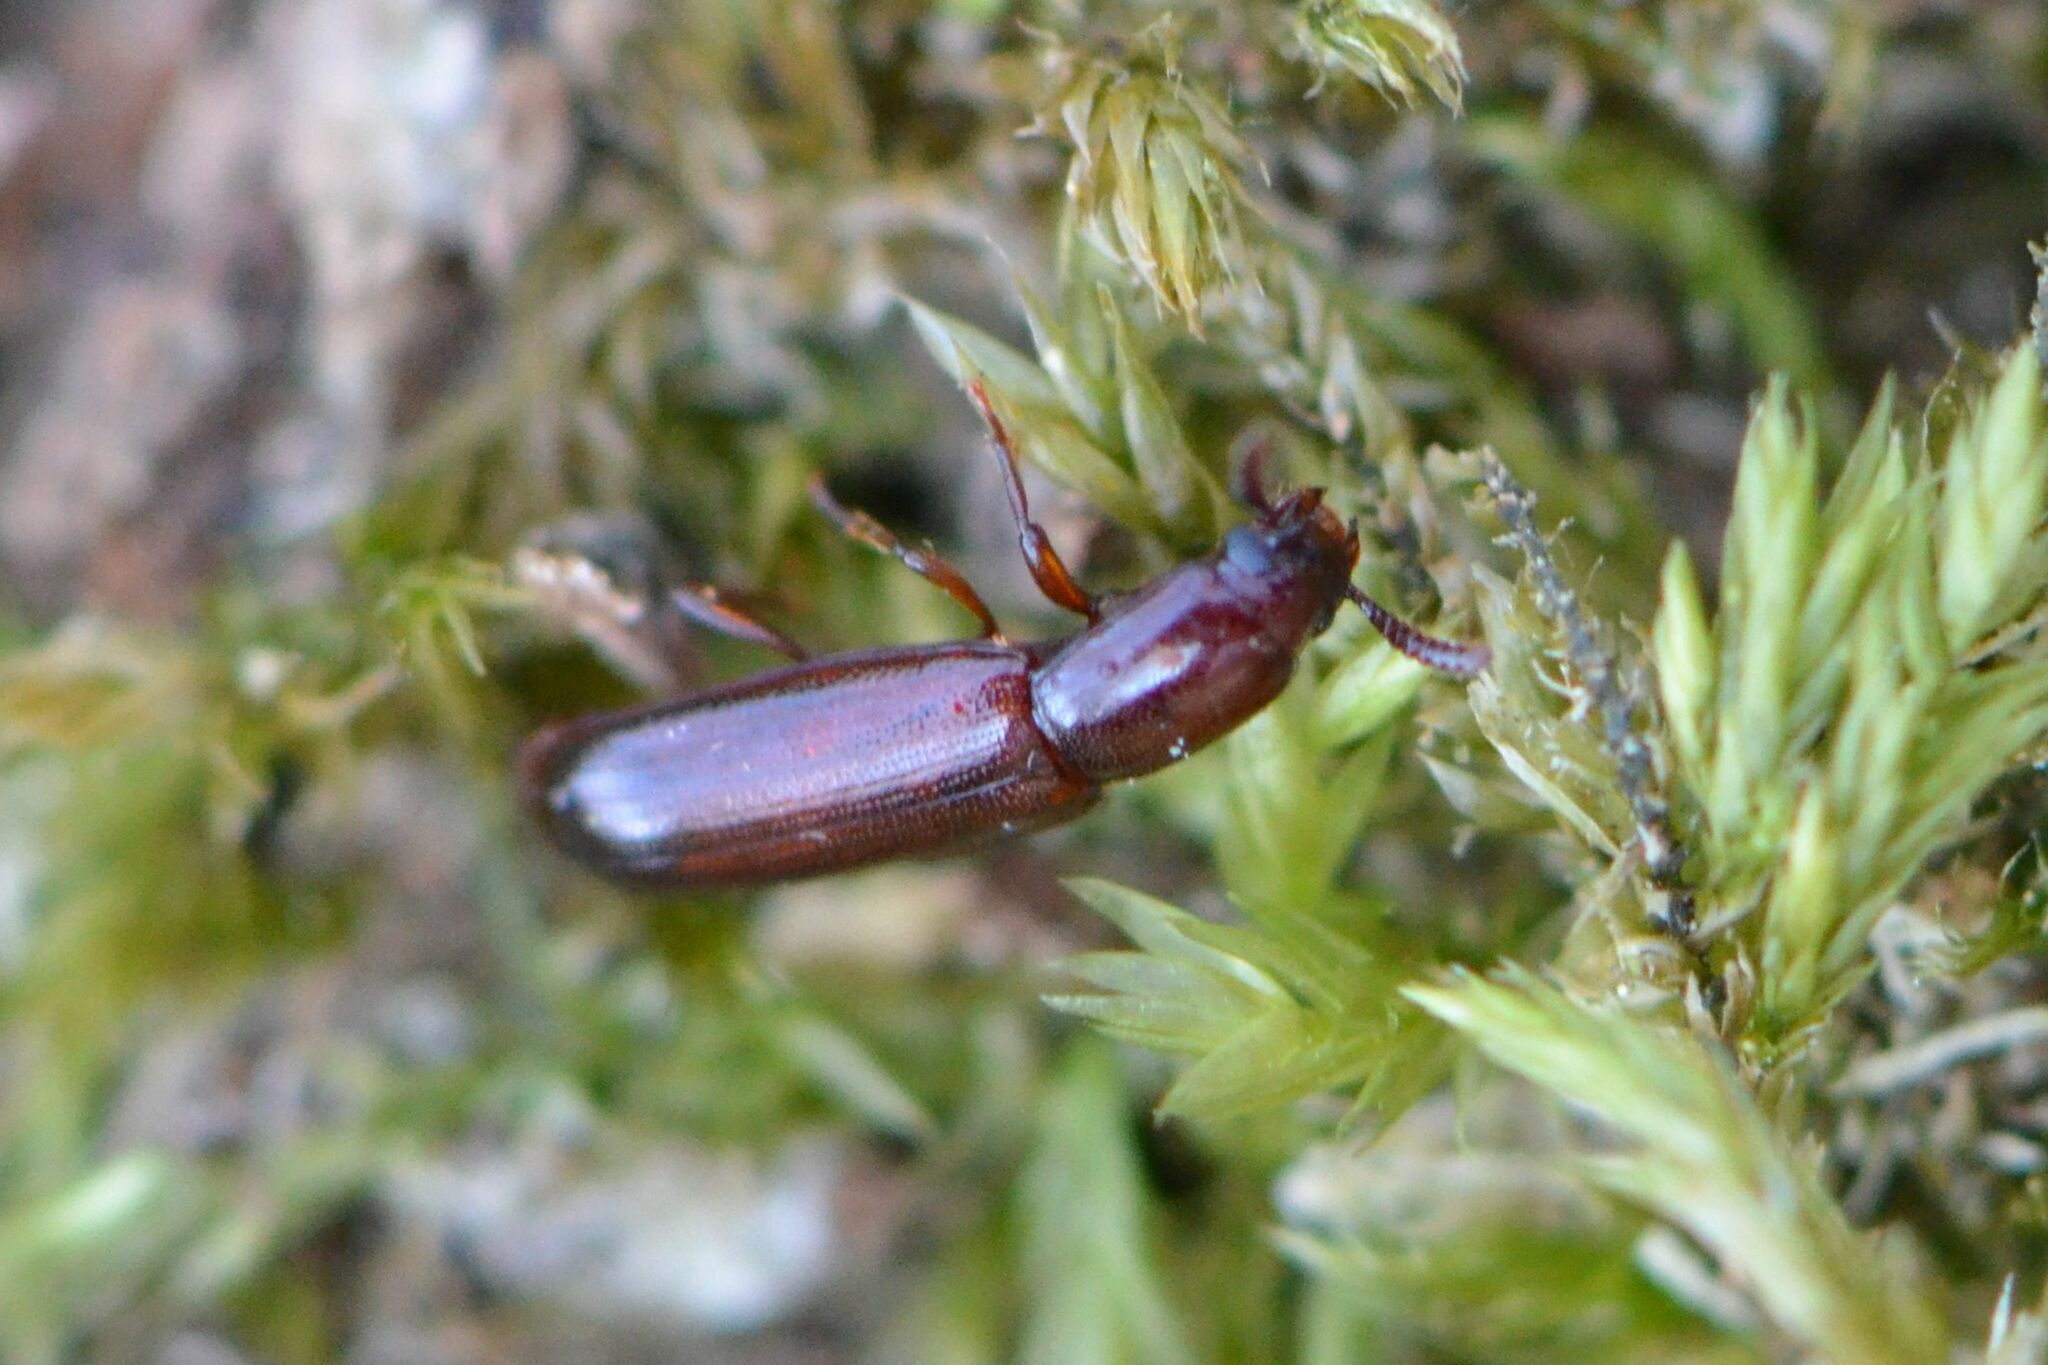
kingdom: Animalia
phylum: Arthropoda
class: Insecta
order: Coleoptera
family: Tenebrionidae
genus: Corticeus
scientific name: Corticeus unicolor
